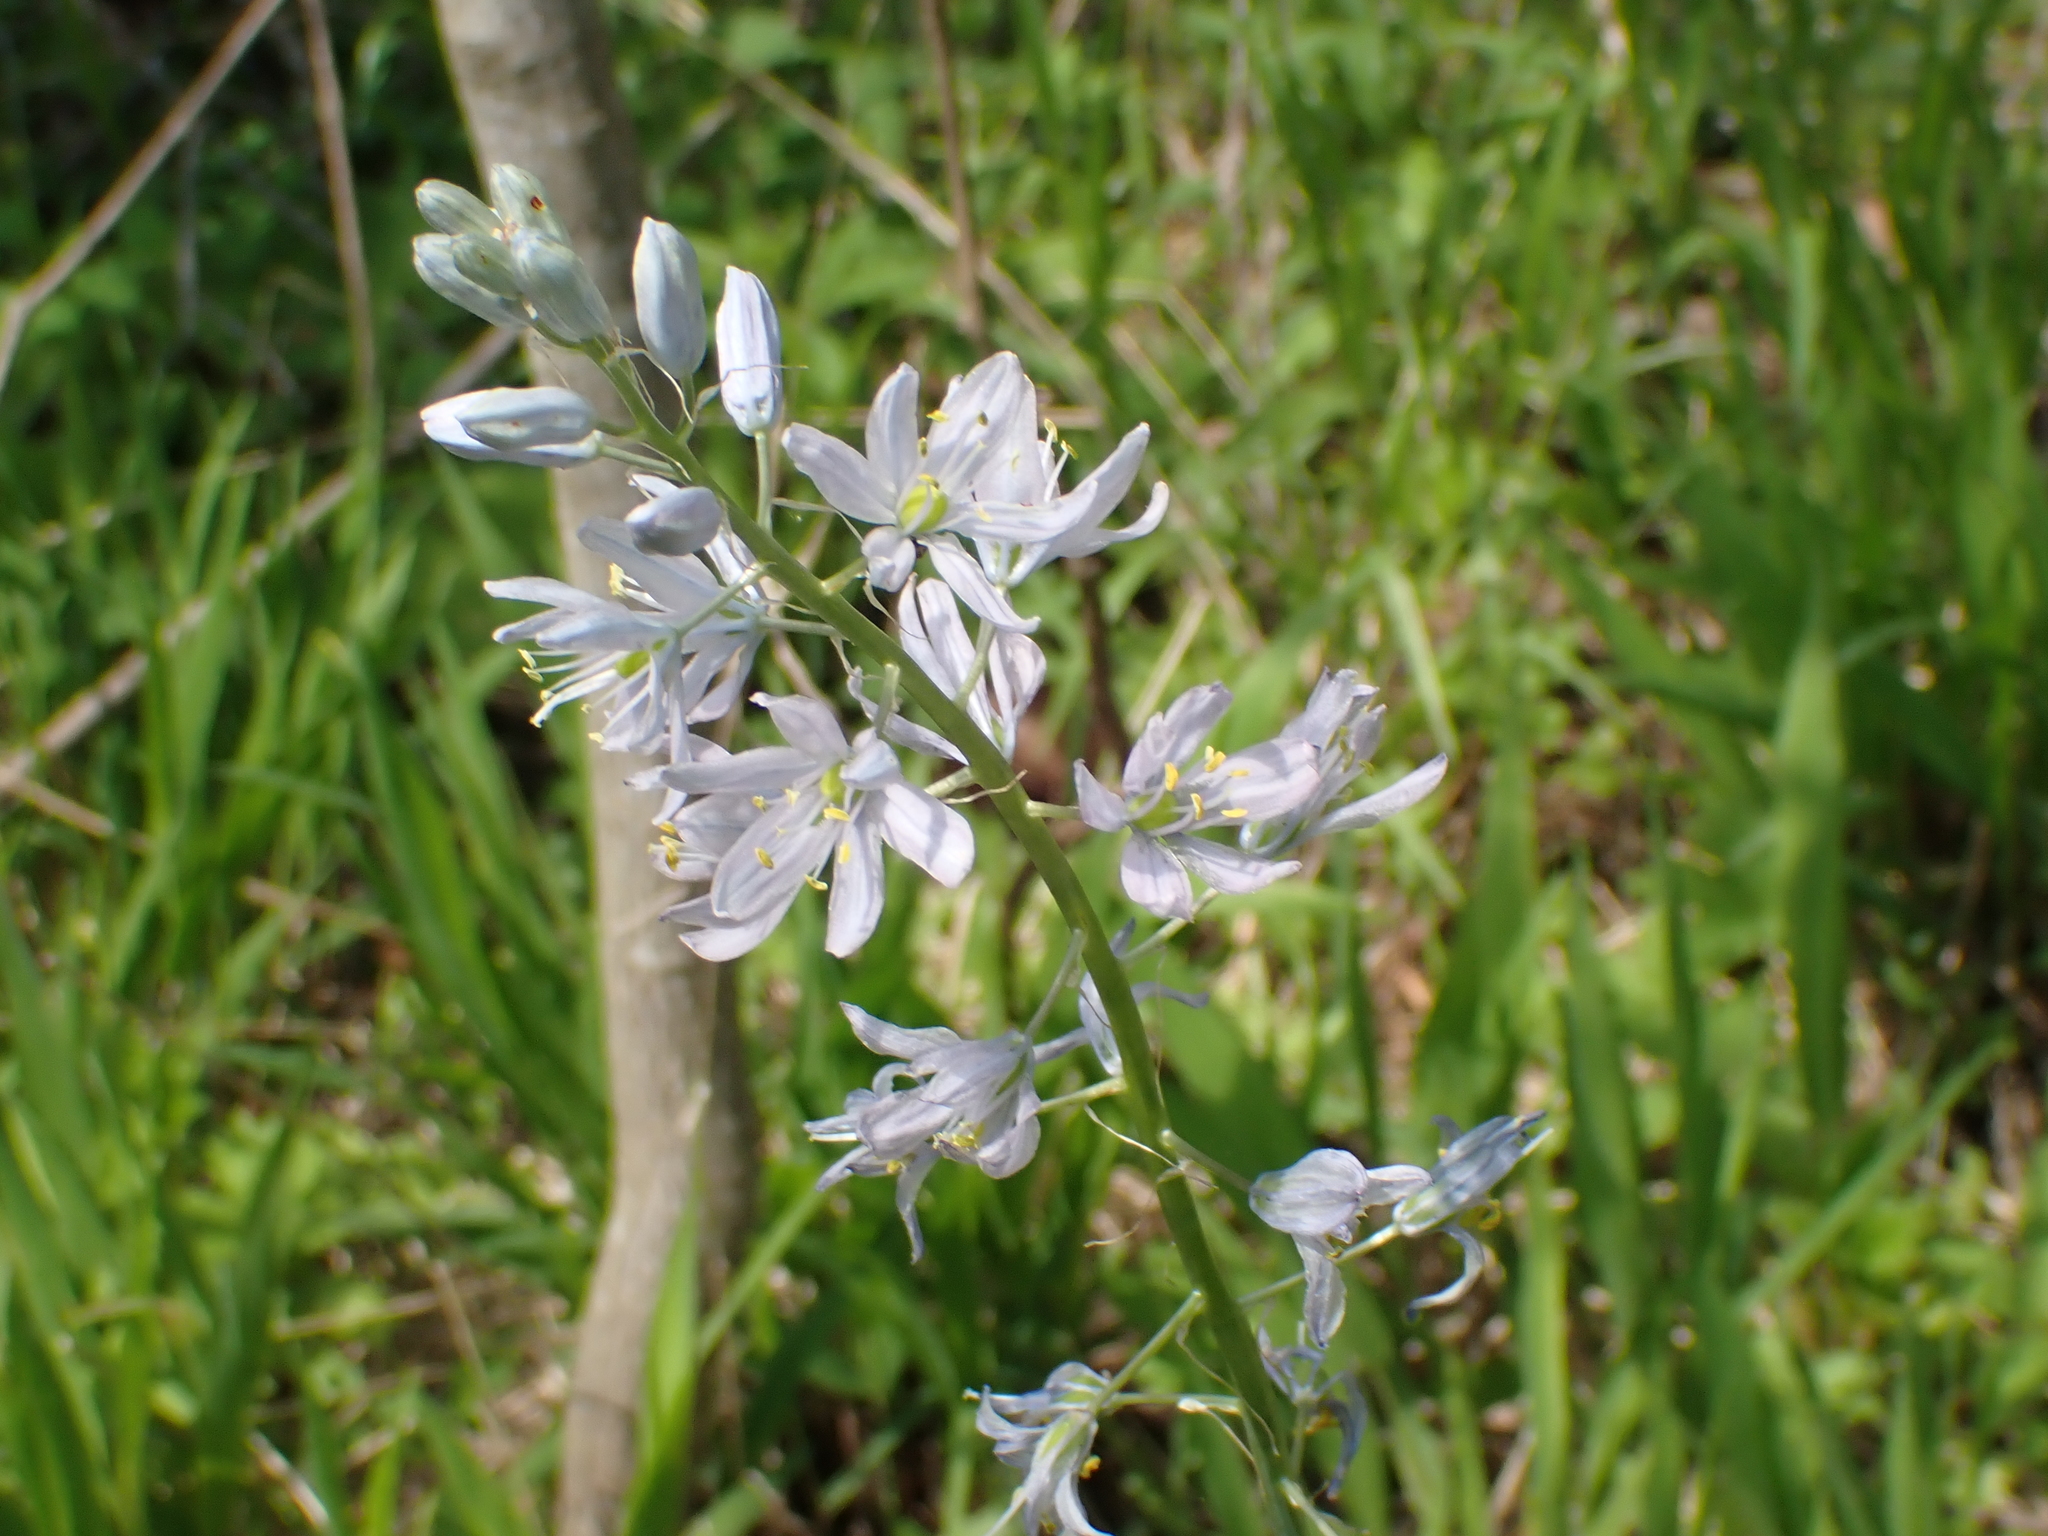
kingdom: Plantae
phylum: Tracheophyta
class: Liliopsida
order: Asparagales
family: Asparagaceae
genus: Camassia
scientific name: Camassia scilloides
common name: Wild hyacinth
